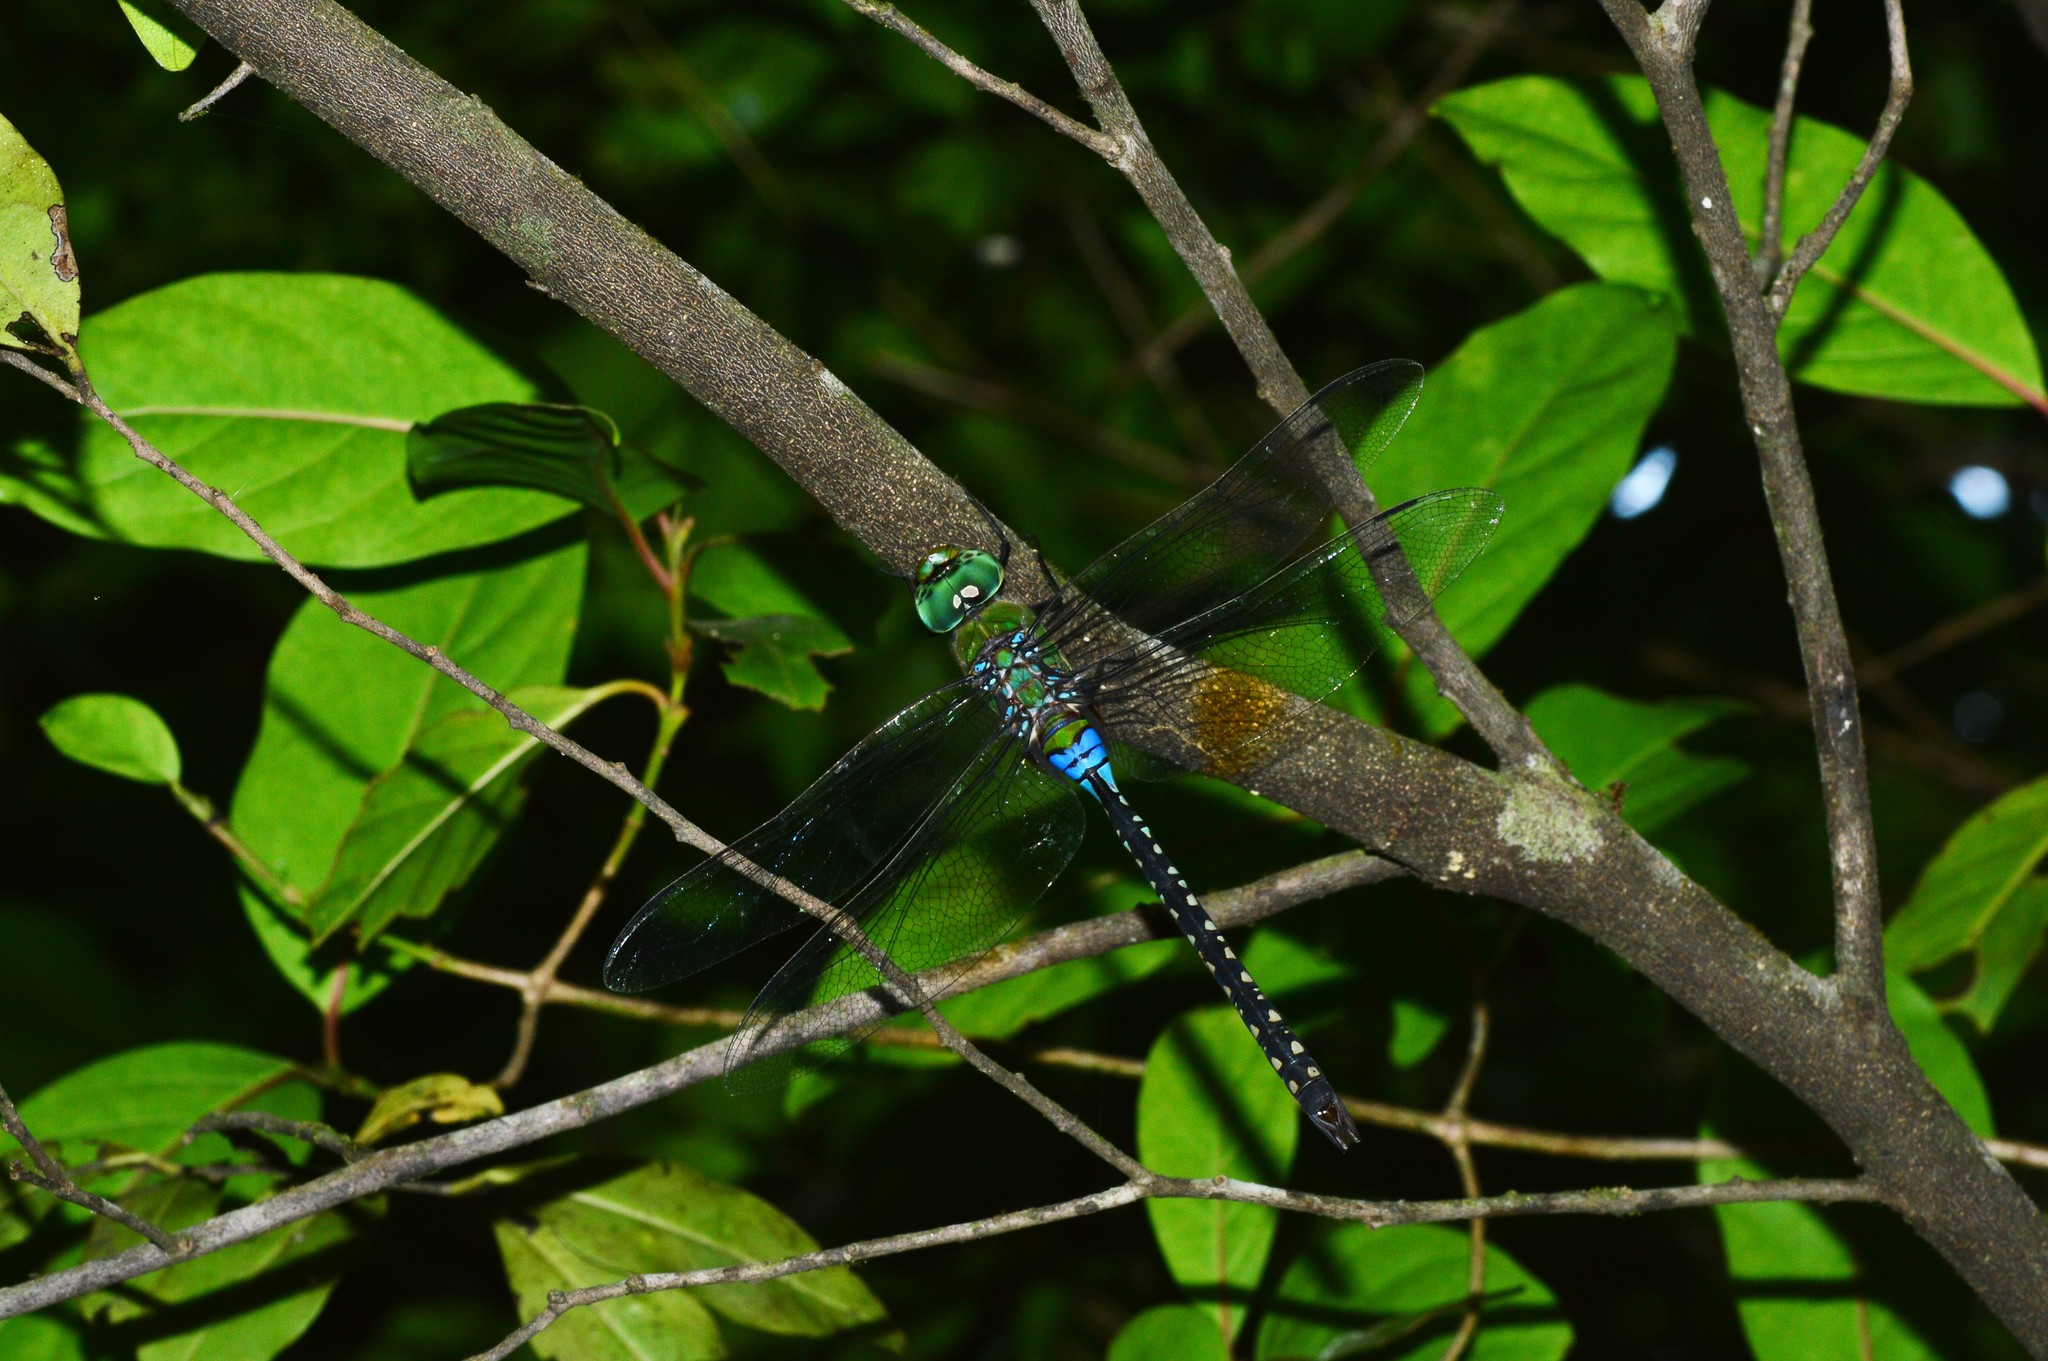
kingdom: Animalia
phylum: Arthropoda
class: Insecta
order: Odonata
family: Aeshnidae
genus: Anax
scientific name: Anax guttatus
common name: Emperor
